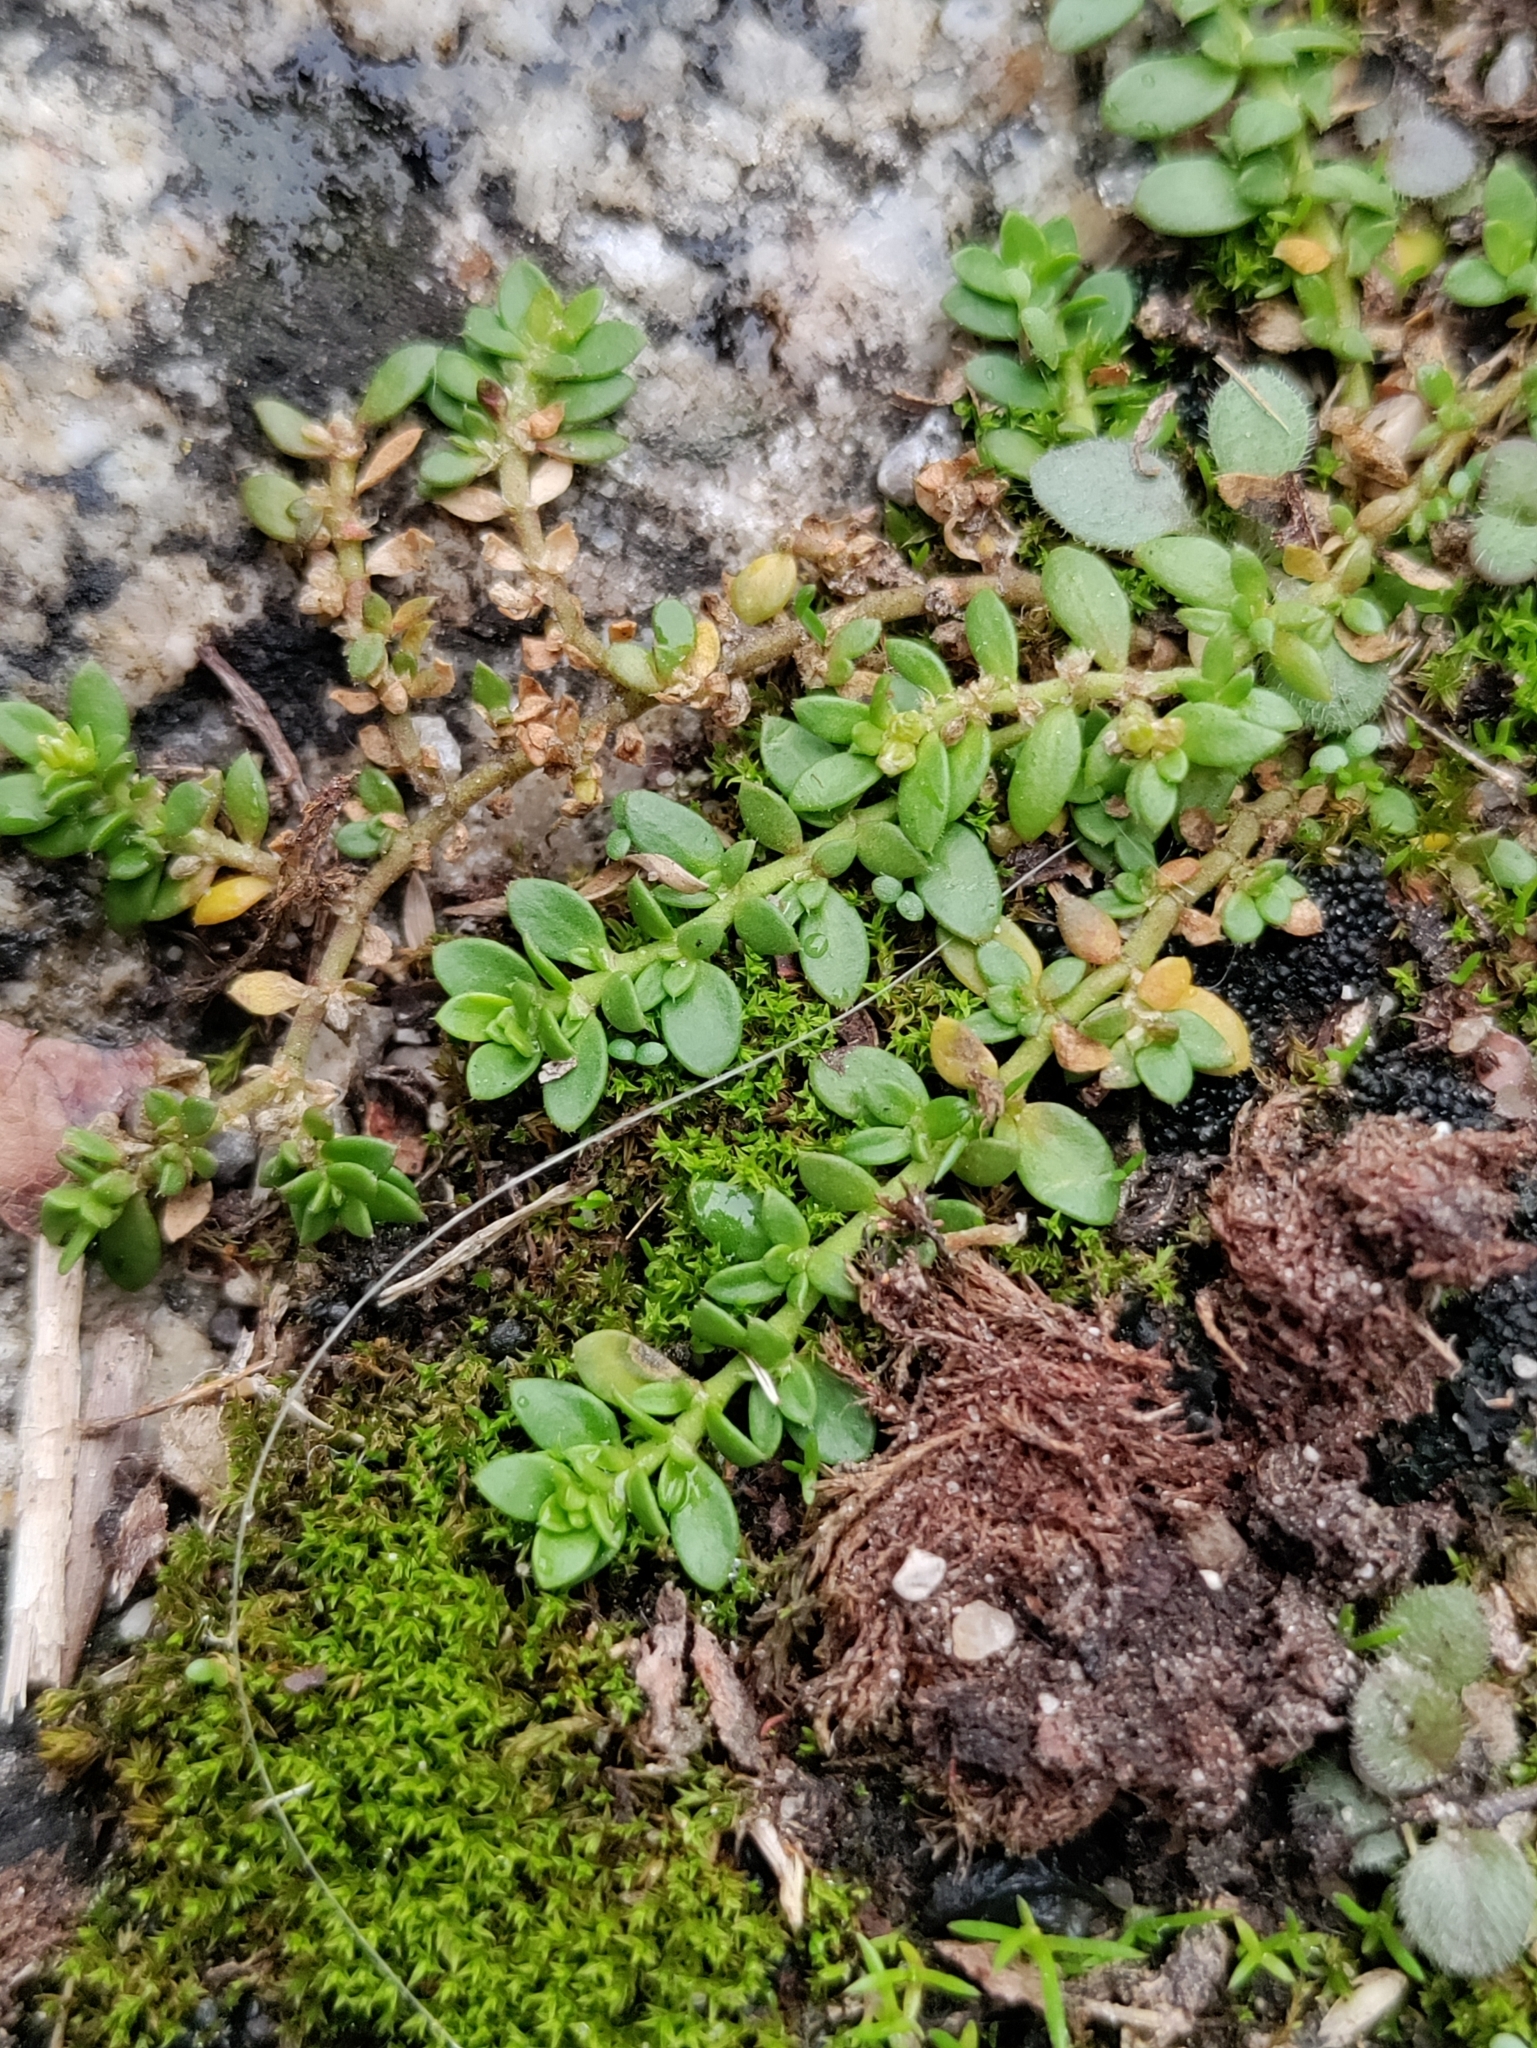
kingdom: Plantae
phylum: Tracheophyta
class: Magnoliopsida
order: Caryophyllales
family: Caryophyllaceae
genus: Herniaria
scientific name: Herniaria glabra
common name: Smooth rupturewort
